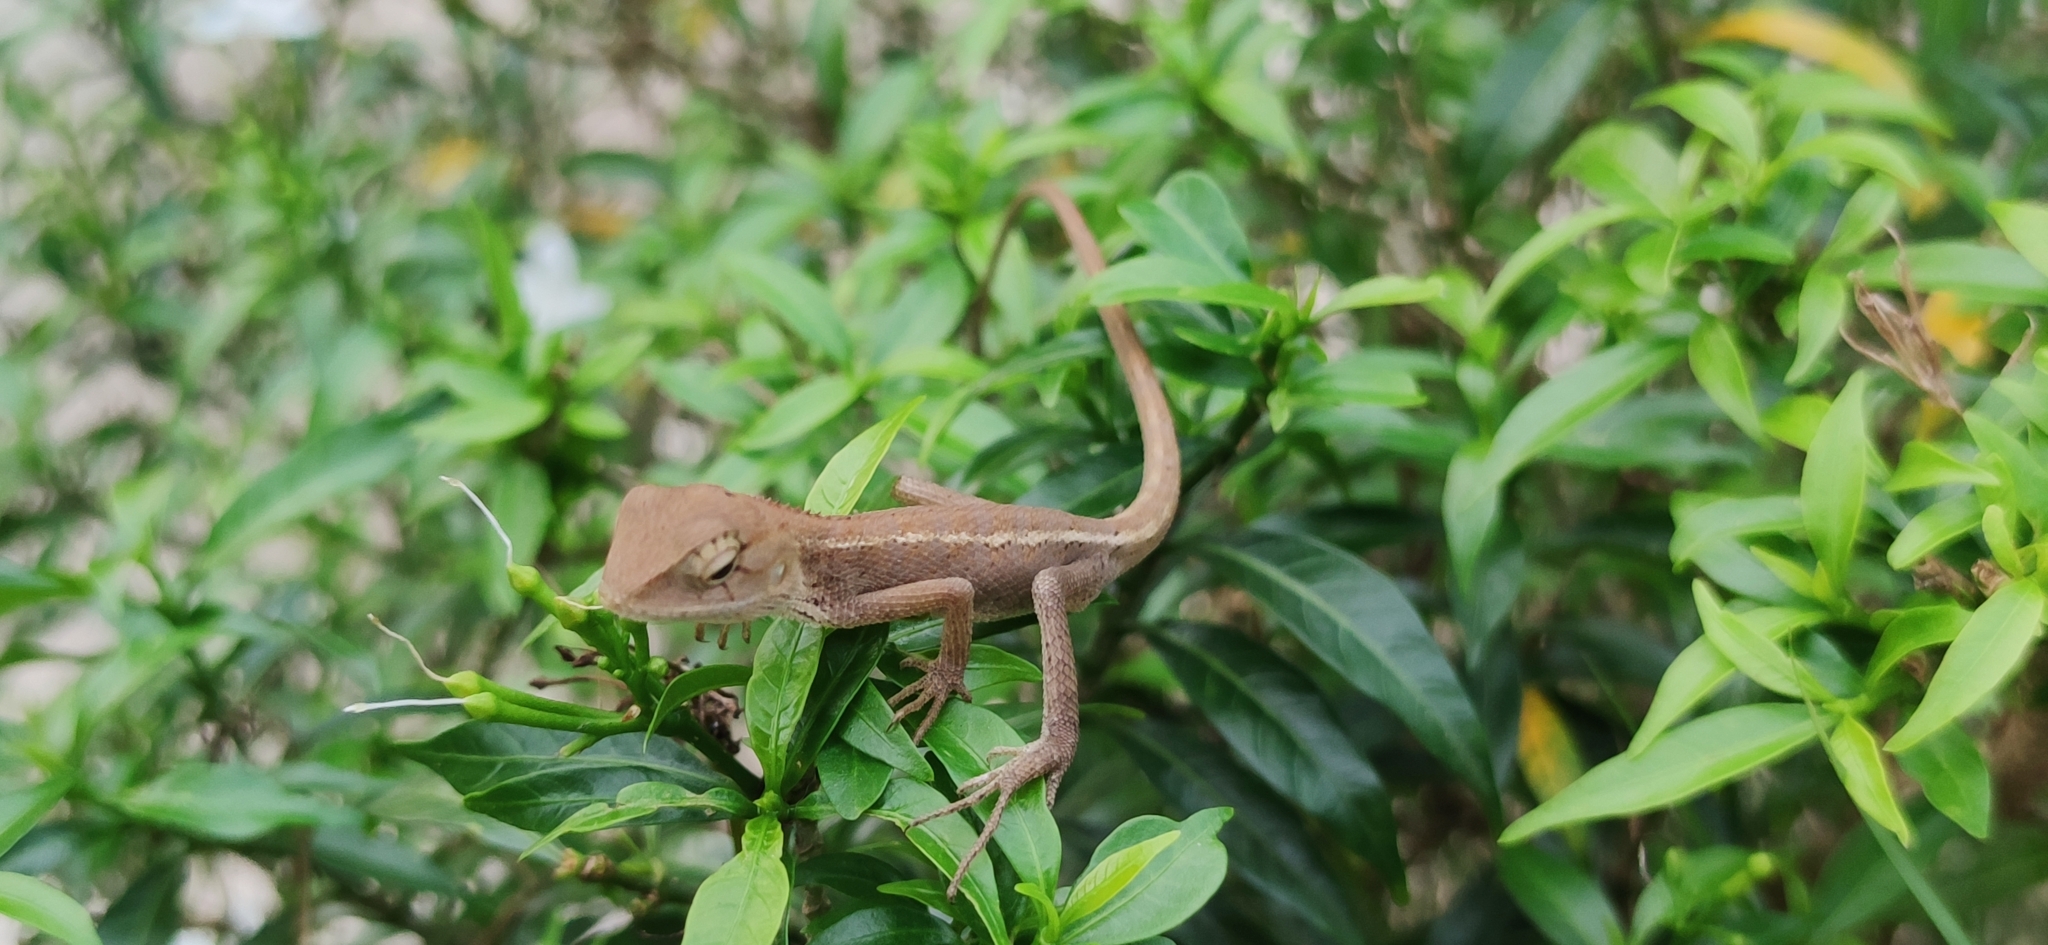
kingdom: Animalia
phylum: Chordata
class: Squamata
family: Agamidae
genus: Calotes
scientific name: Calotes emma
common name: Thailand bloodsucker
